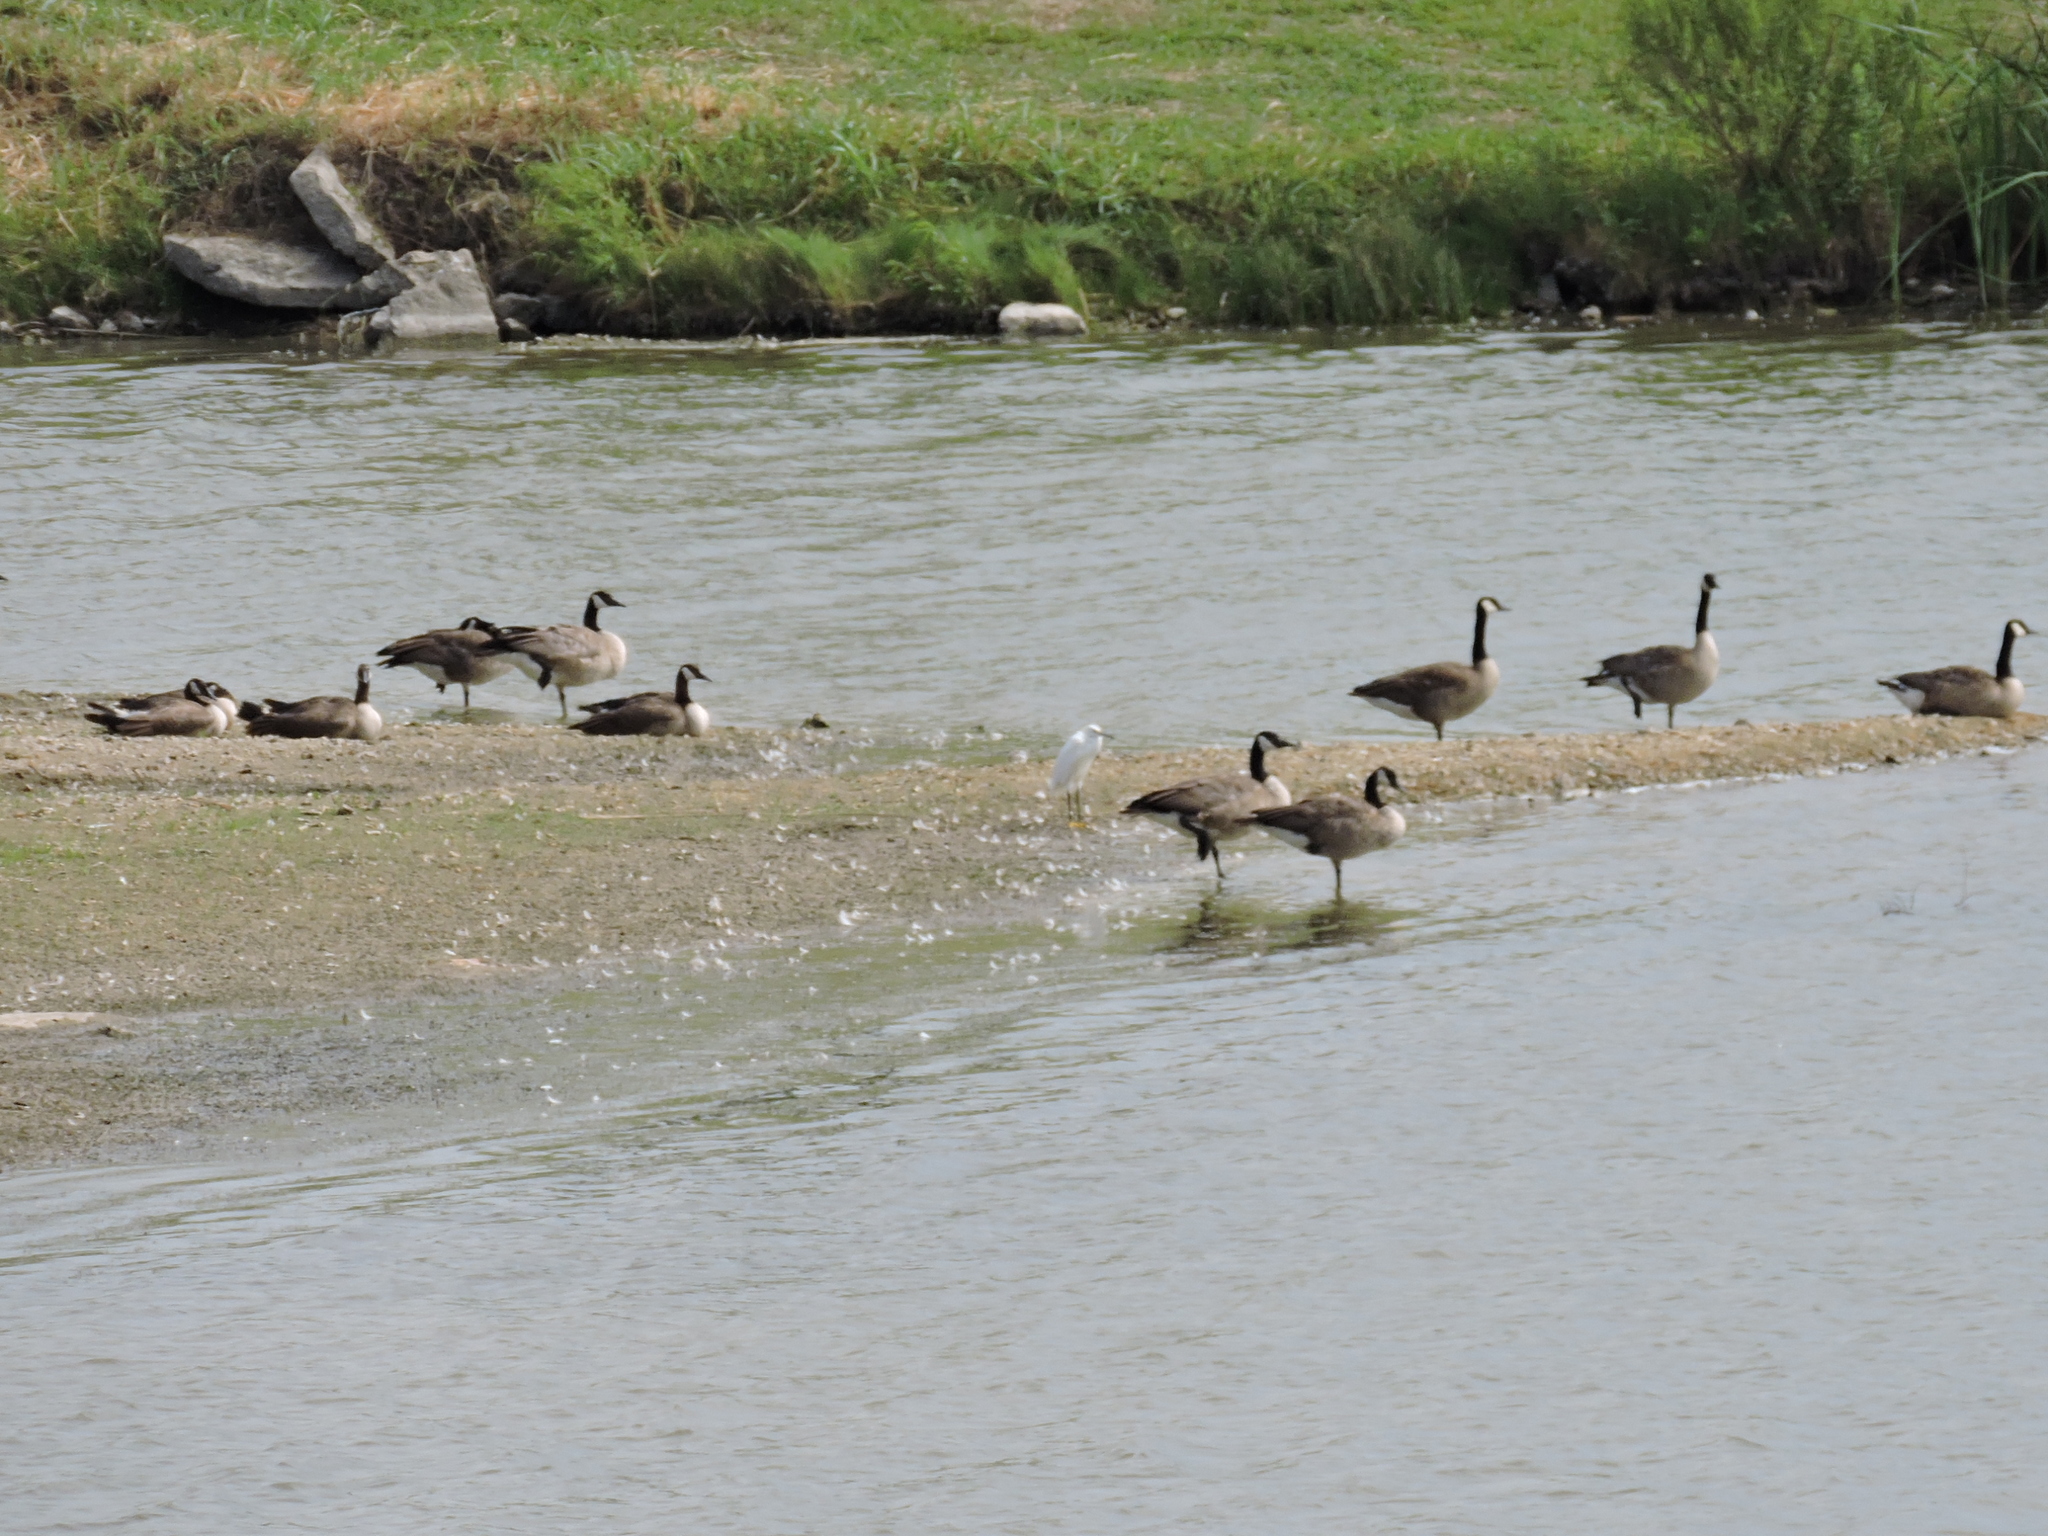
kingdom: Animalia
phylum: Chordata
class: Aves
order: Anseriformes
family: Anatidae
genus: Branta
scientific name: Branta canadensis
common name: Canada goose
